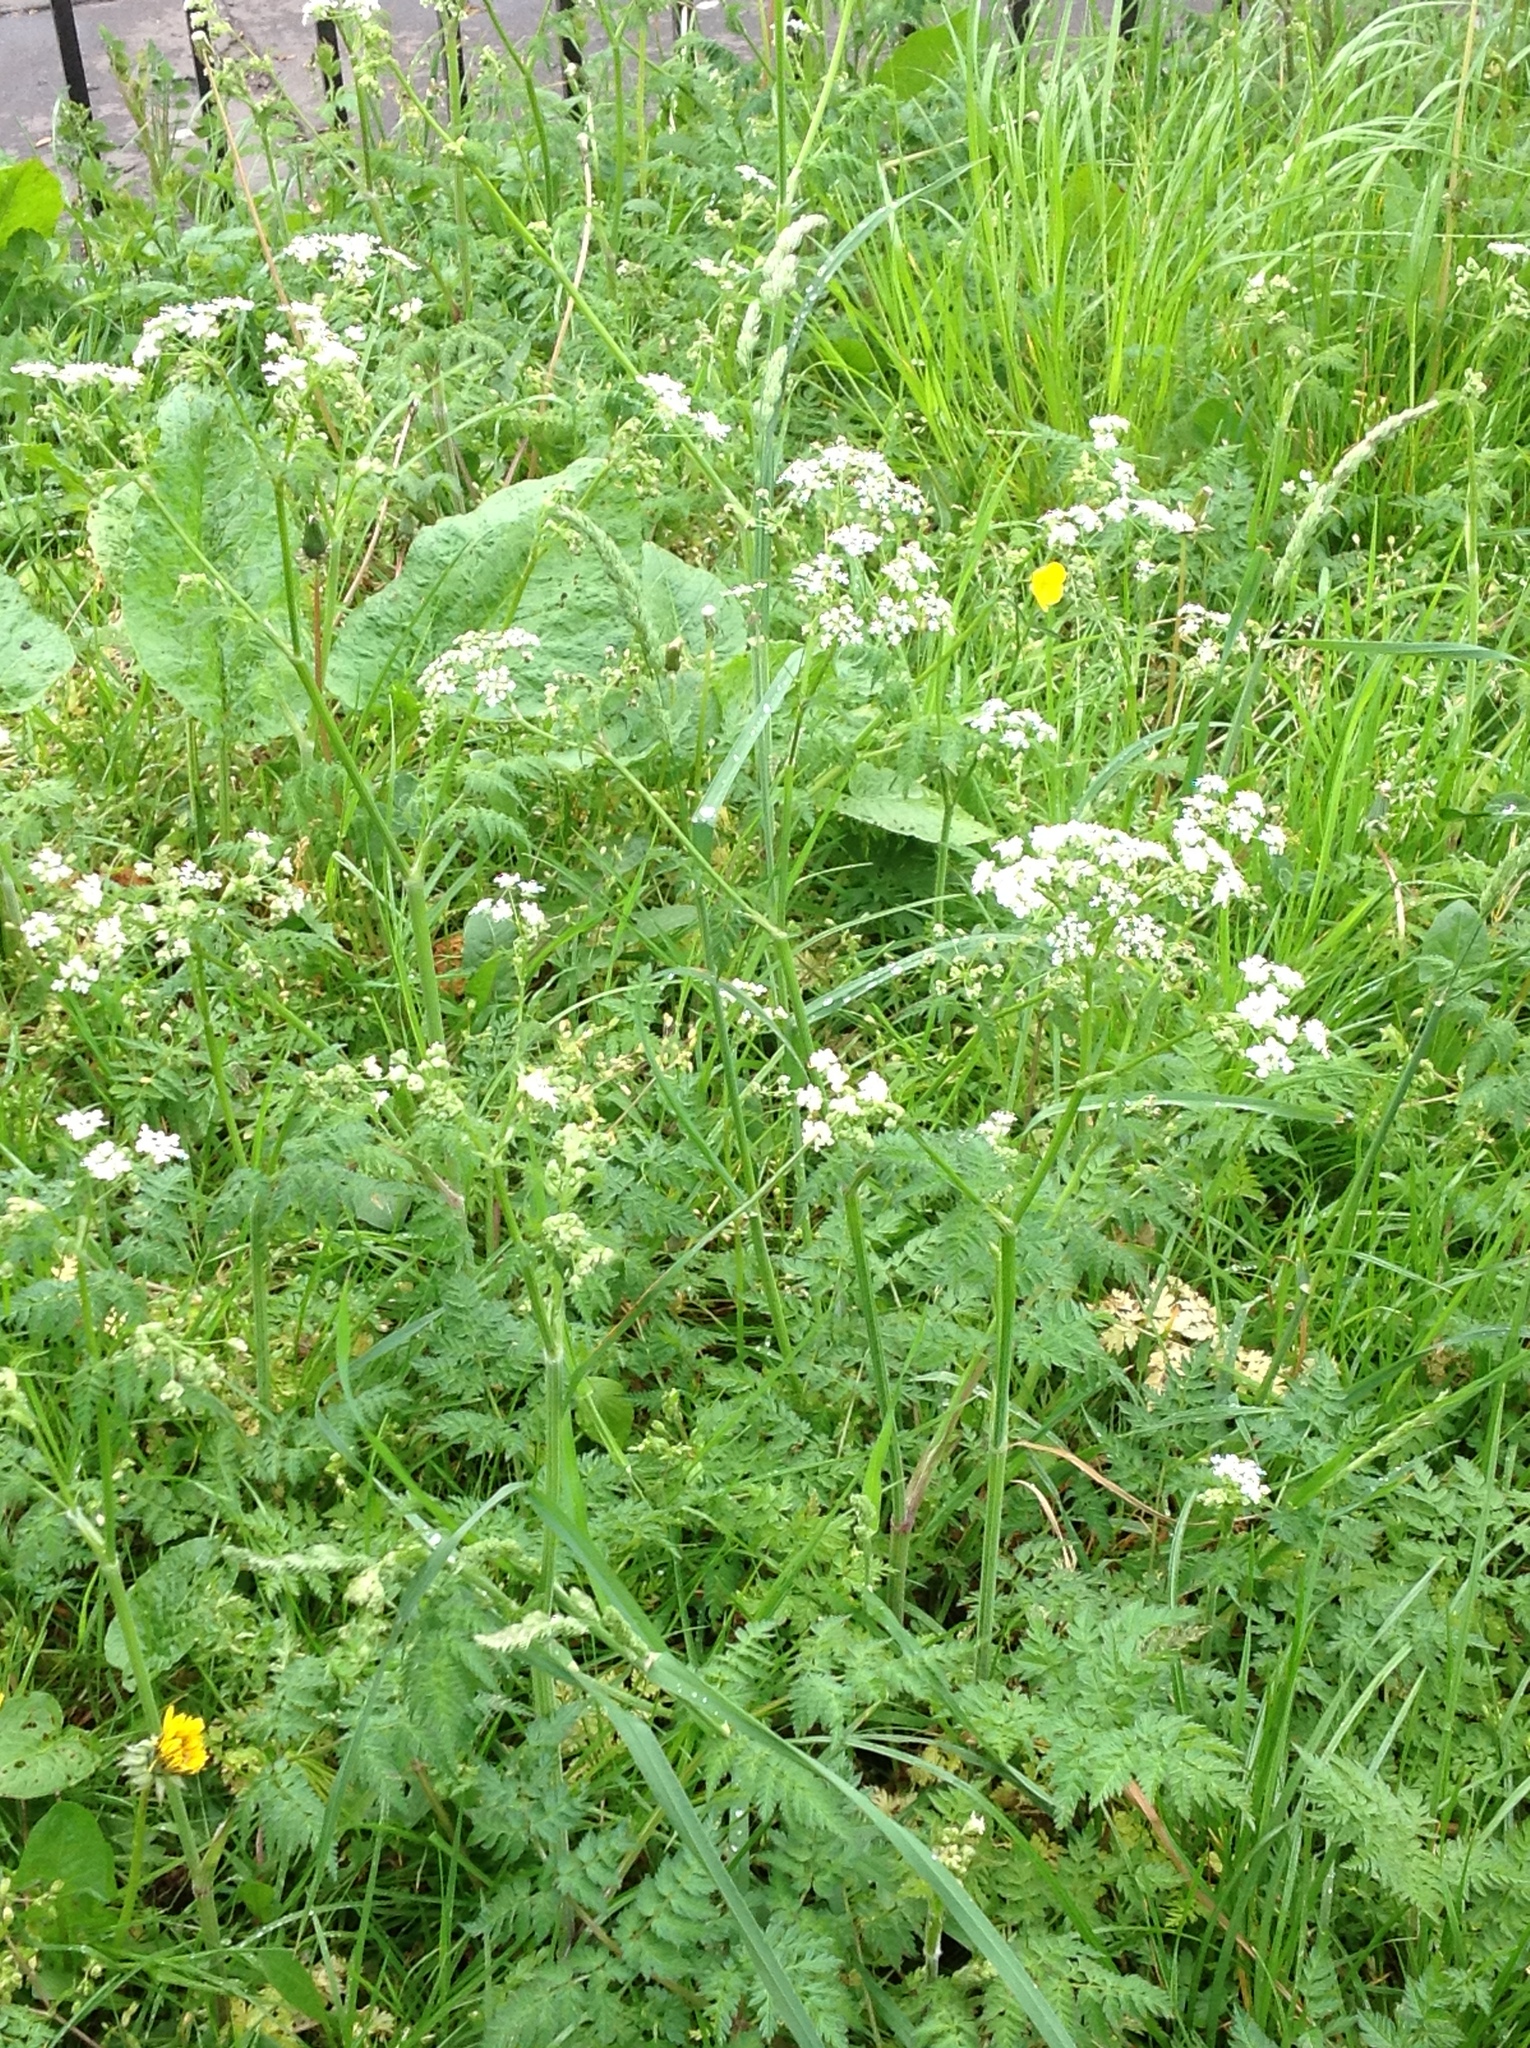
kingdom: Plantae
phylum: Tracheophyta
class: Magnoliopsida
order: Apiales
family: Apiaceae
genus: Anthriscus
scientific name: Anthriscus sylvestris
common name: Cow parsley
